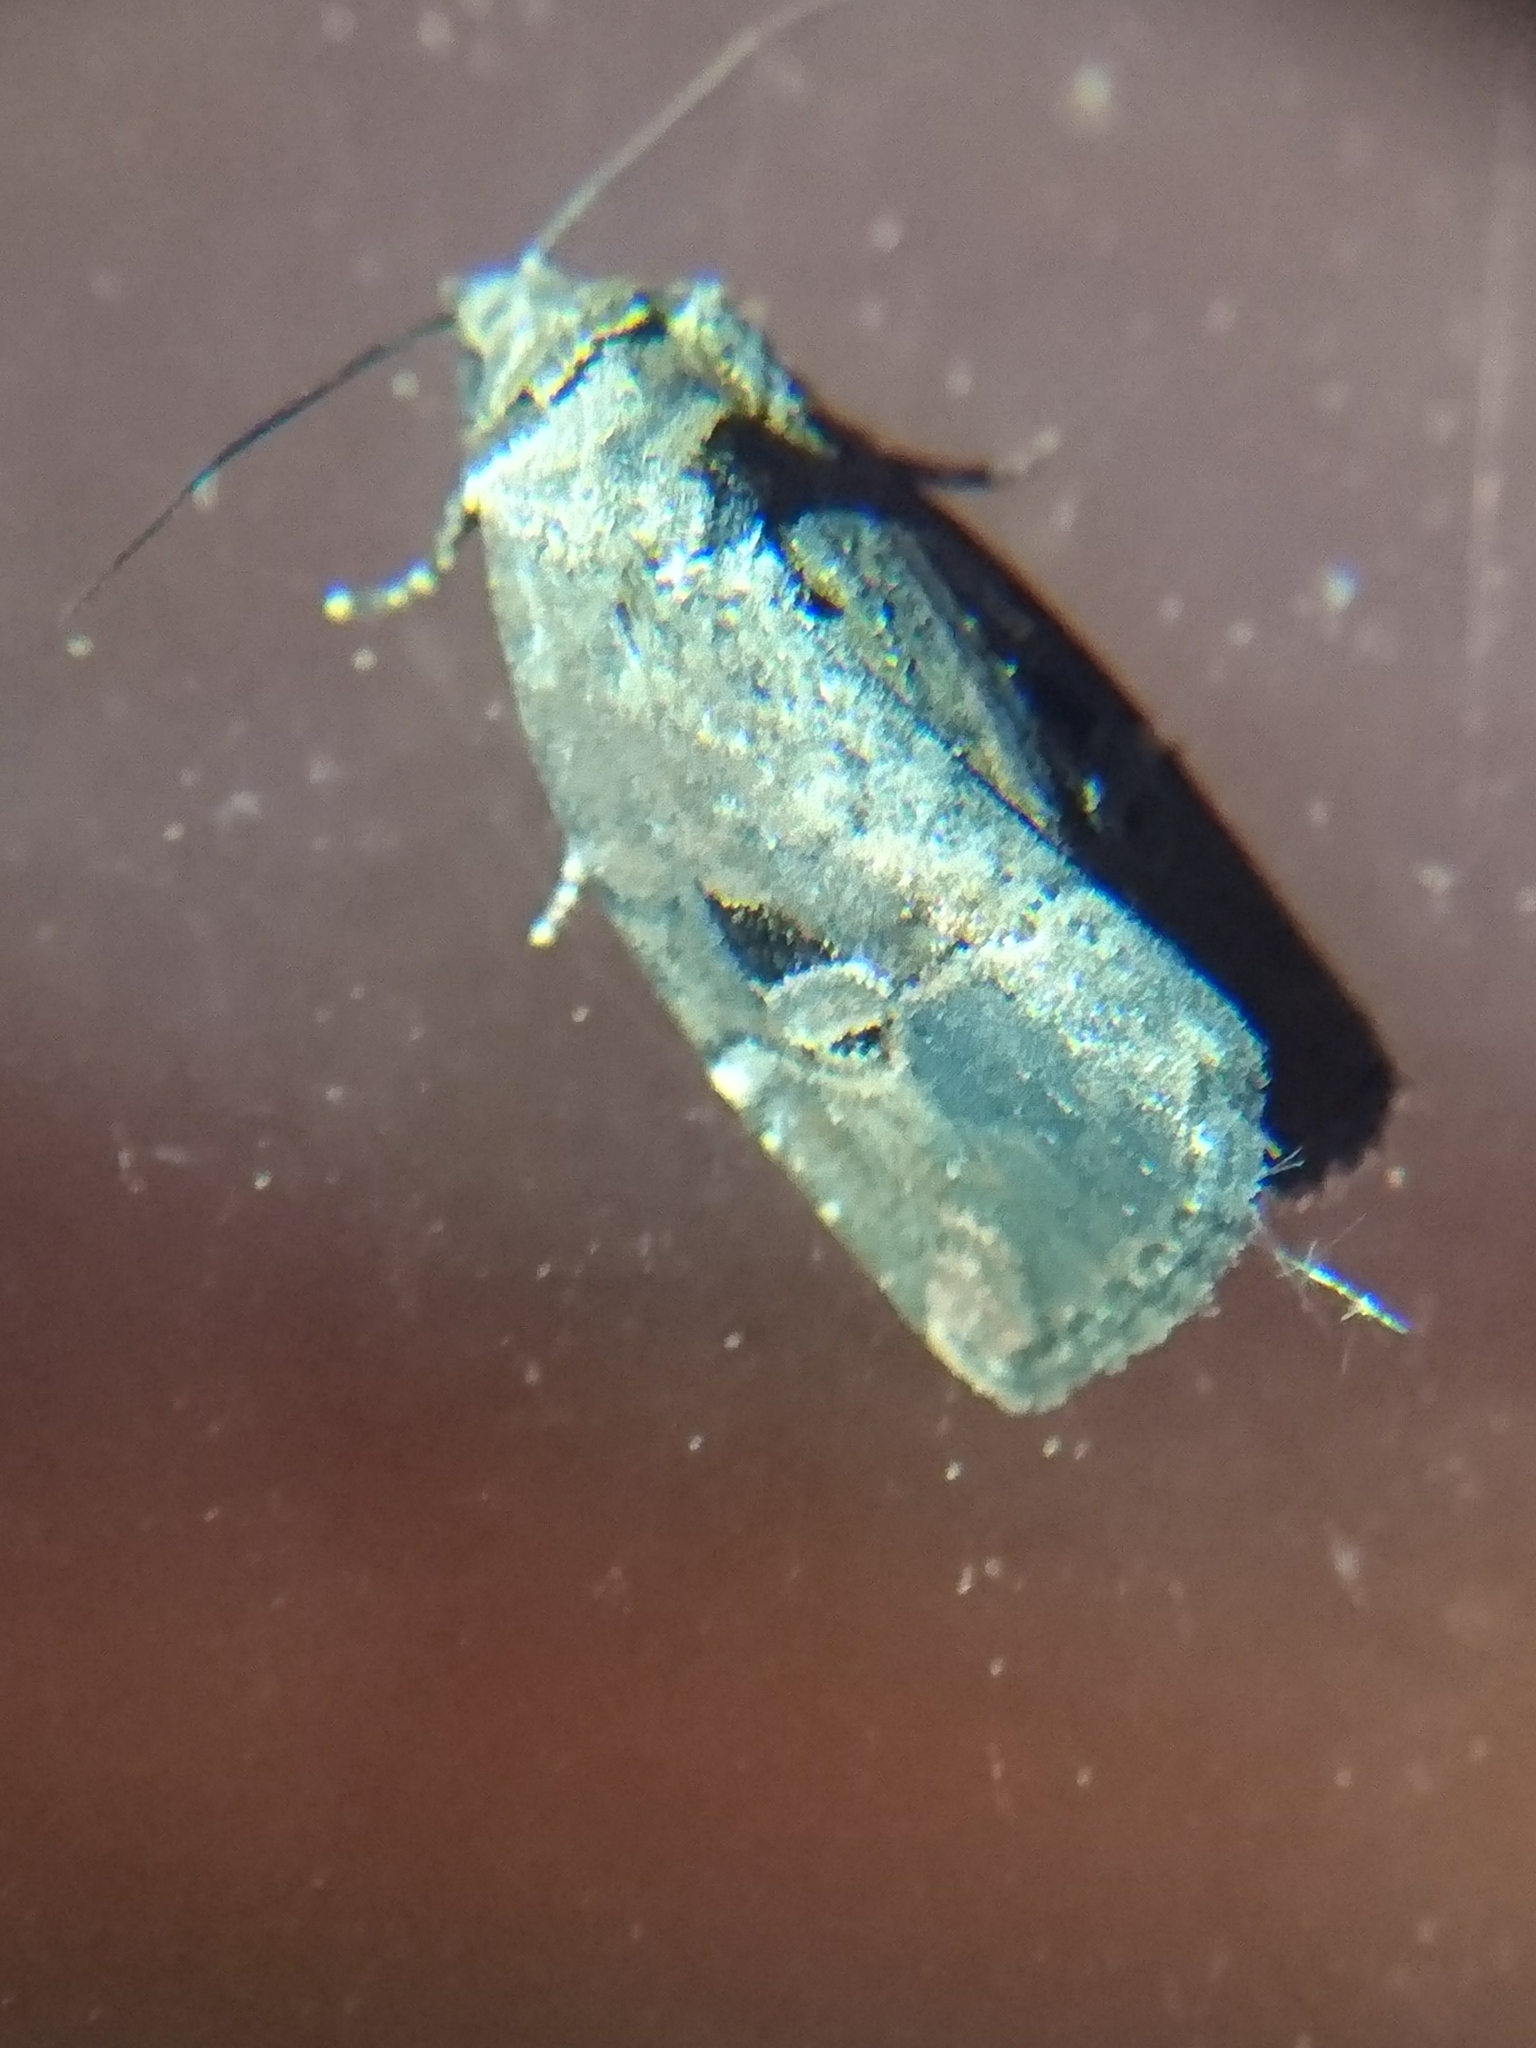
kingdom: Animalia
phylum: Arthropoda
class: Insecta
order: Lepidoptera
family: Noctuidae
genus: Elaphria
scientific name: Elaphria versicolor
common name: Fir harlequin
